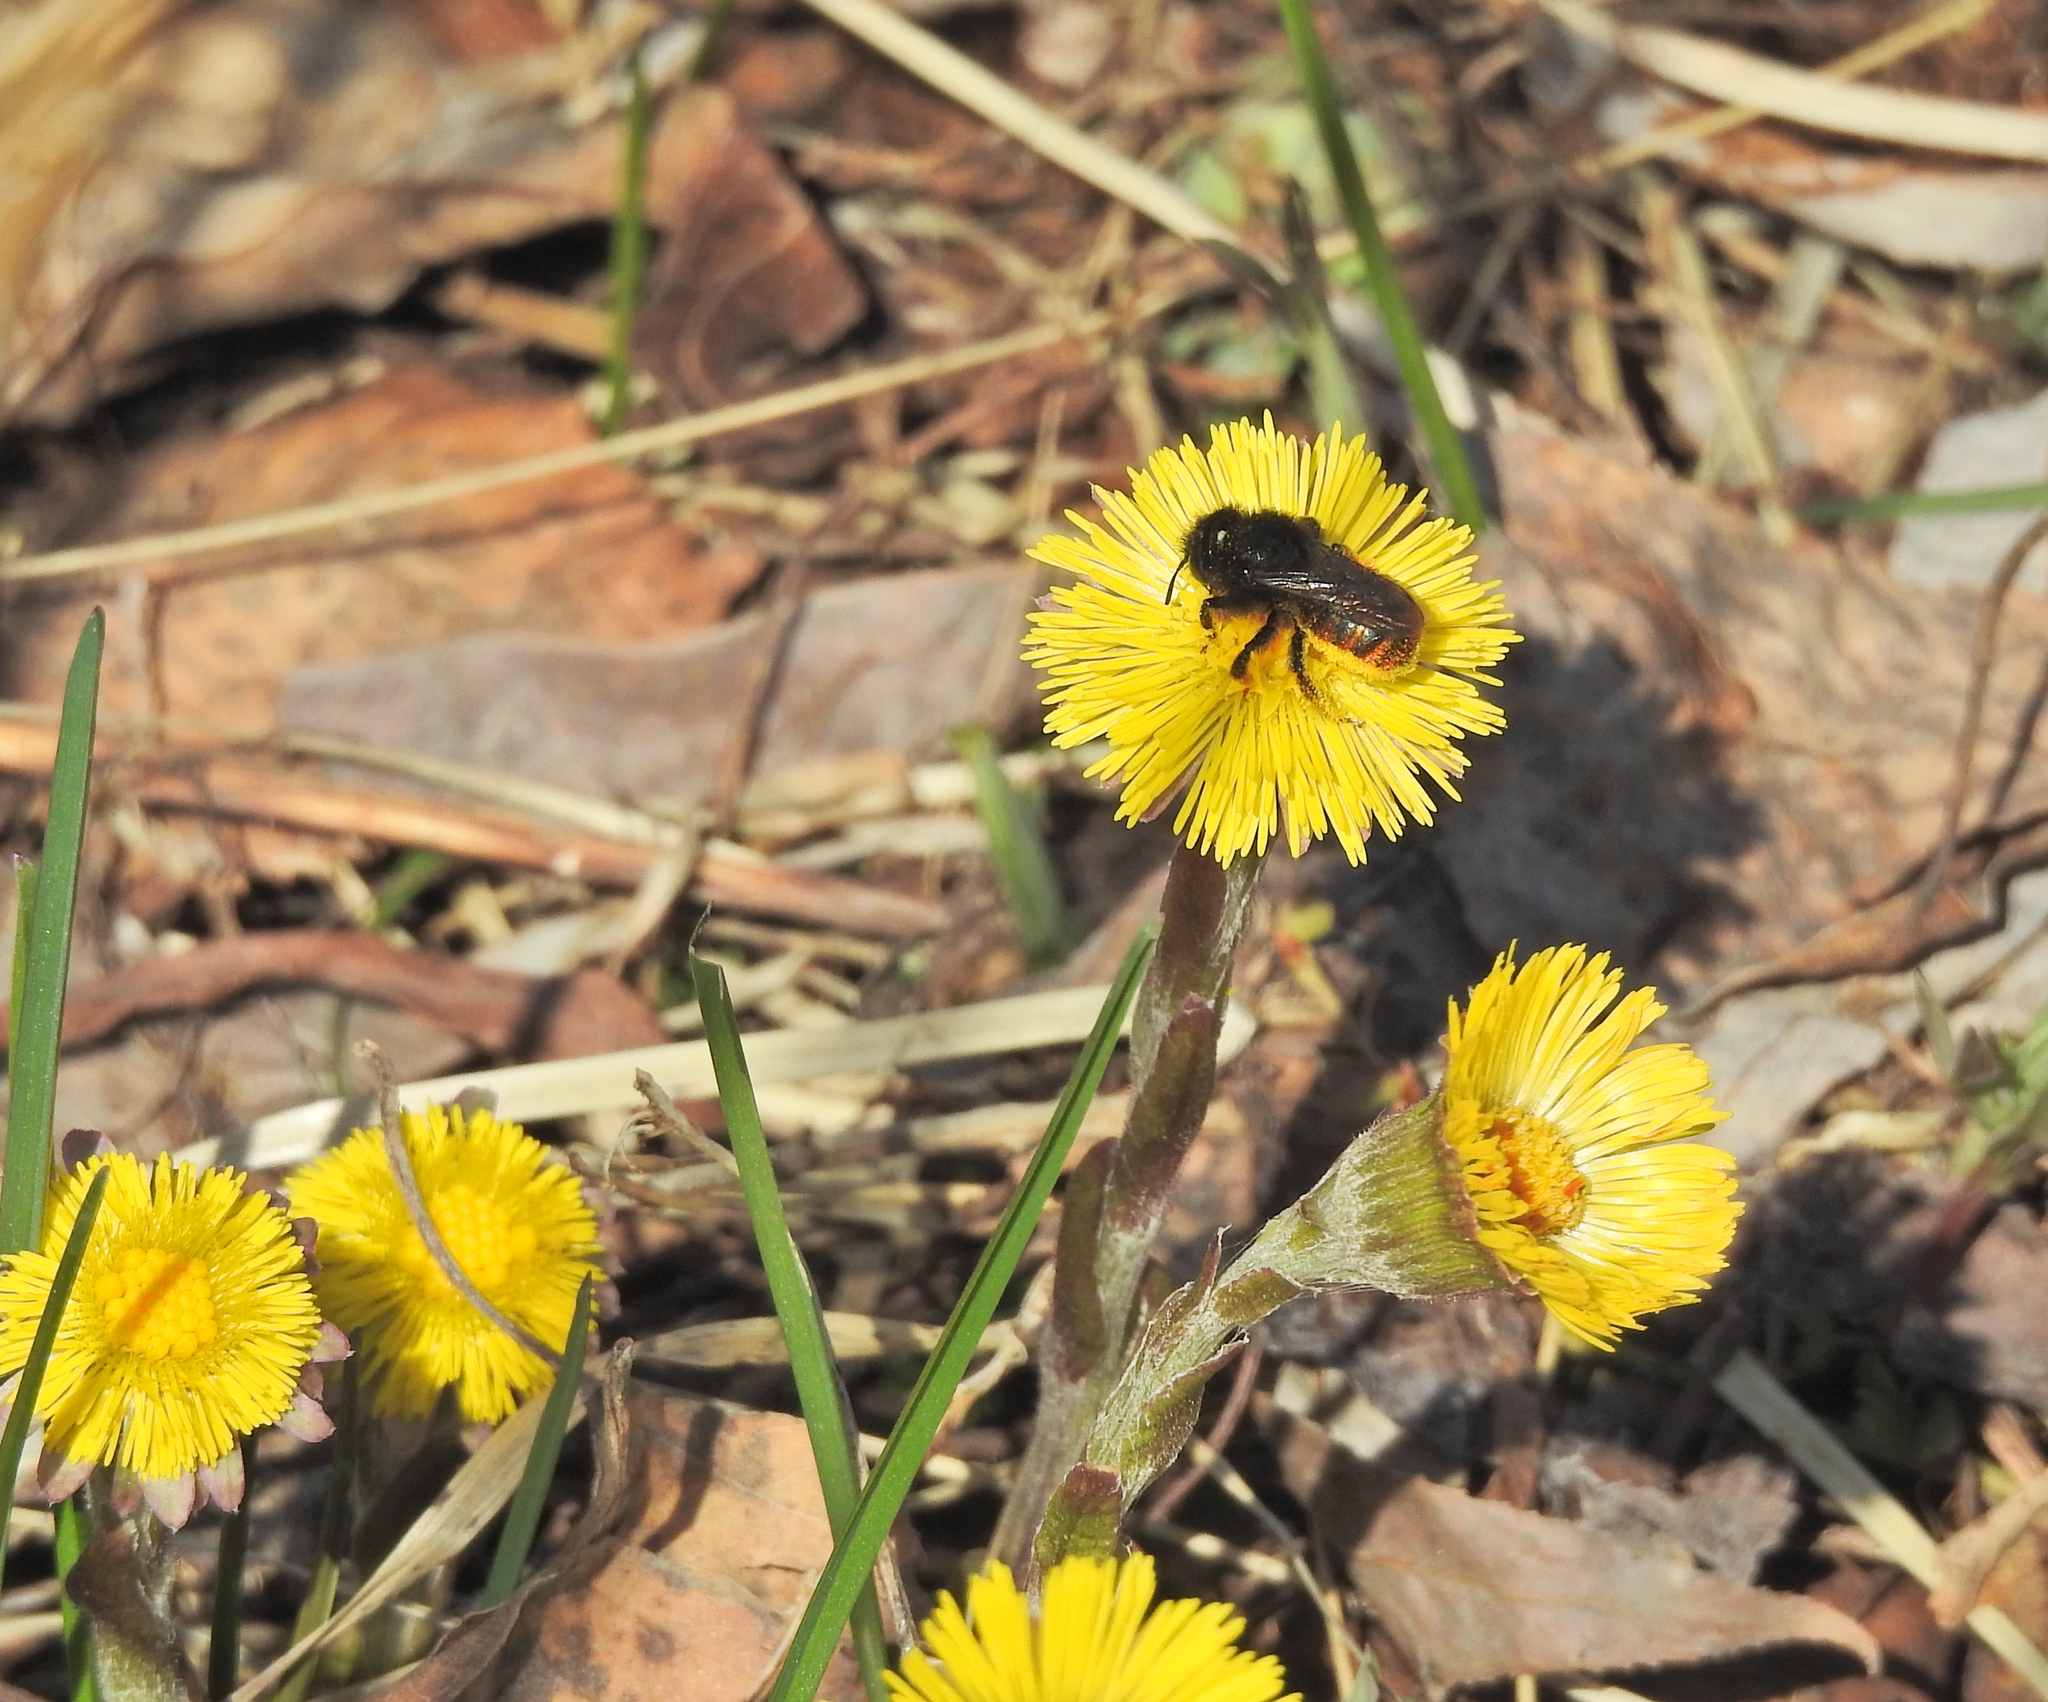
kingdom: Animalia
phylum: Arthropoda
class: Insecta
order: Hymenoptera
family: Megachilidae
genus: Osmia
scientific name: Osmia bicolor
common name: Red-tailed mason bee
